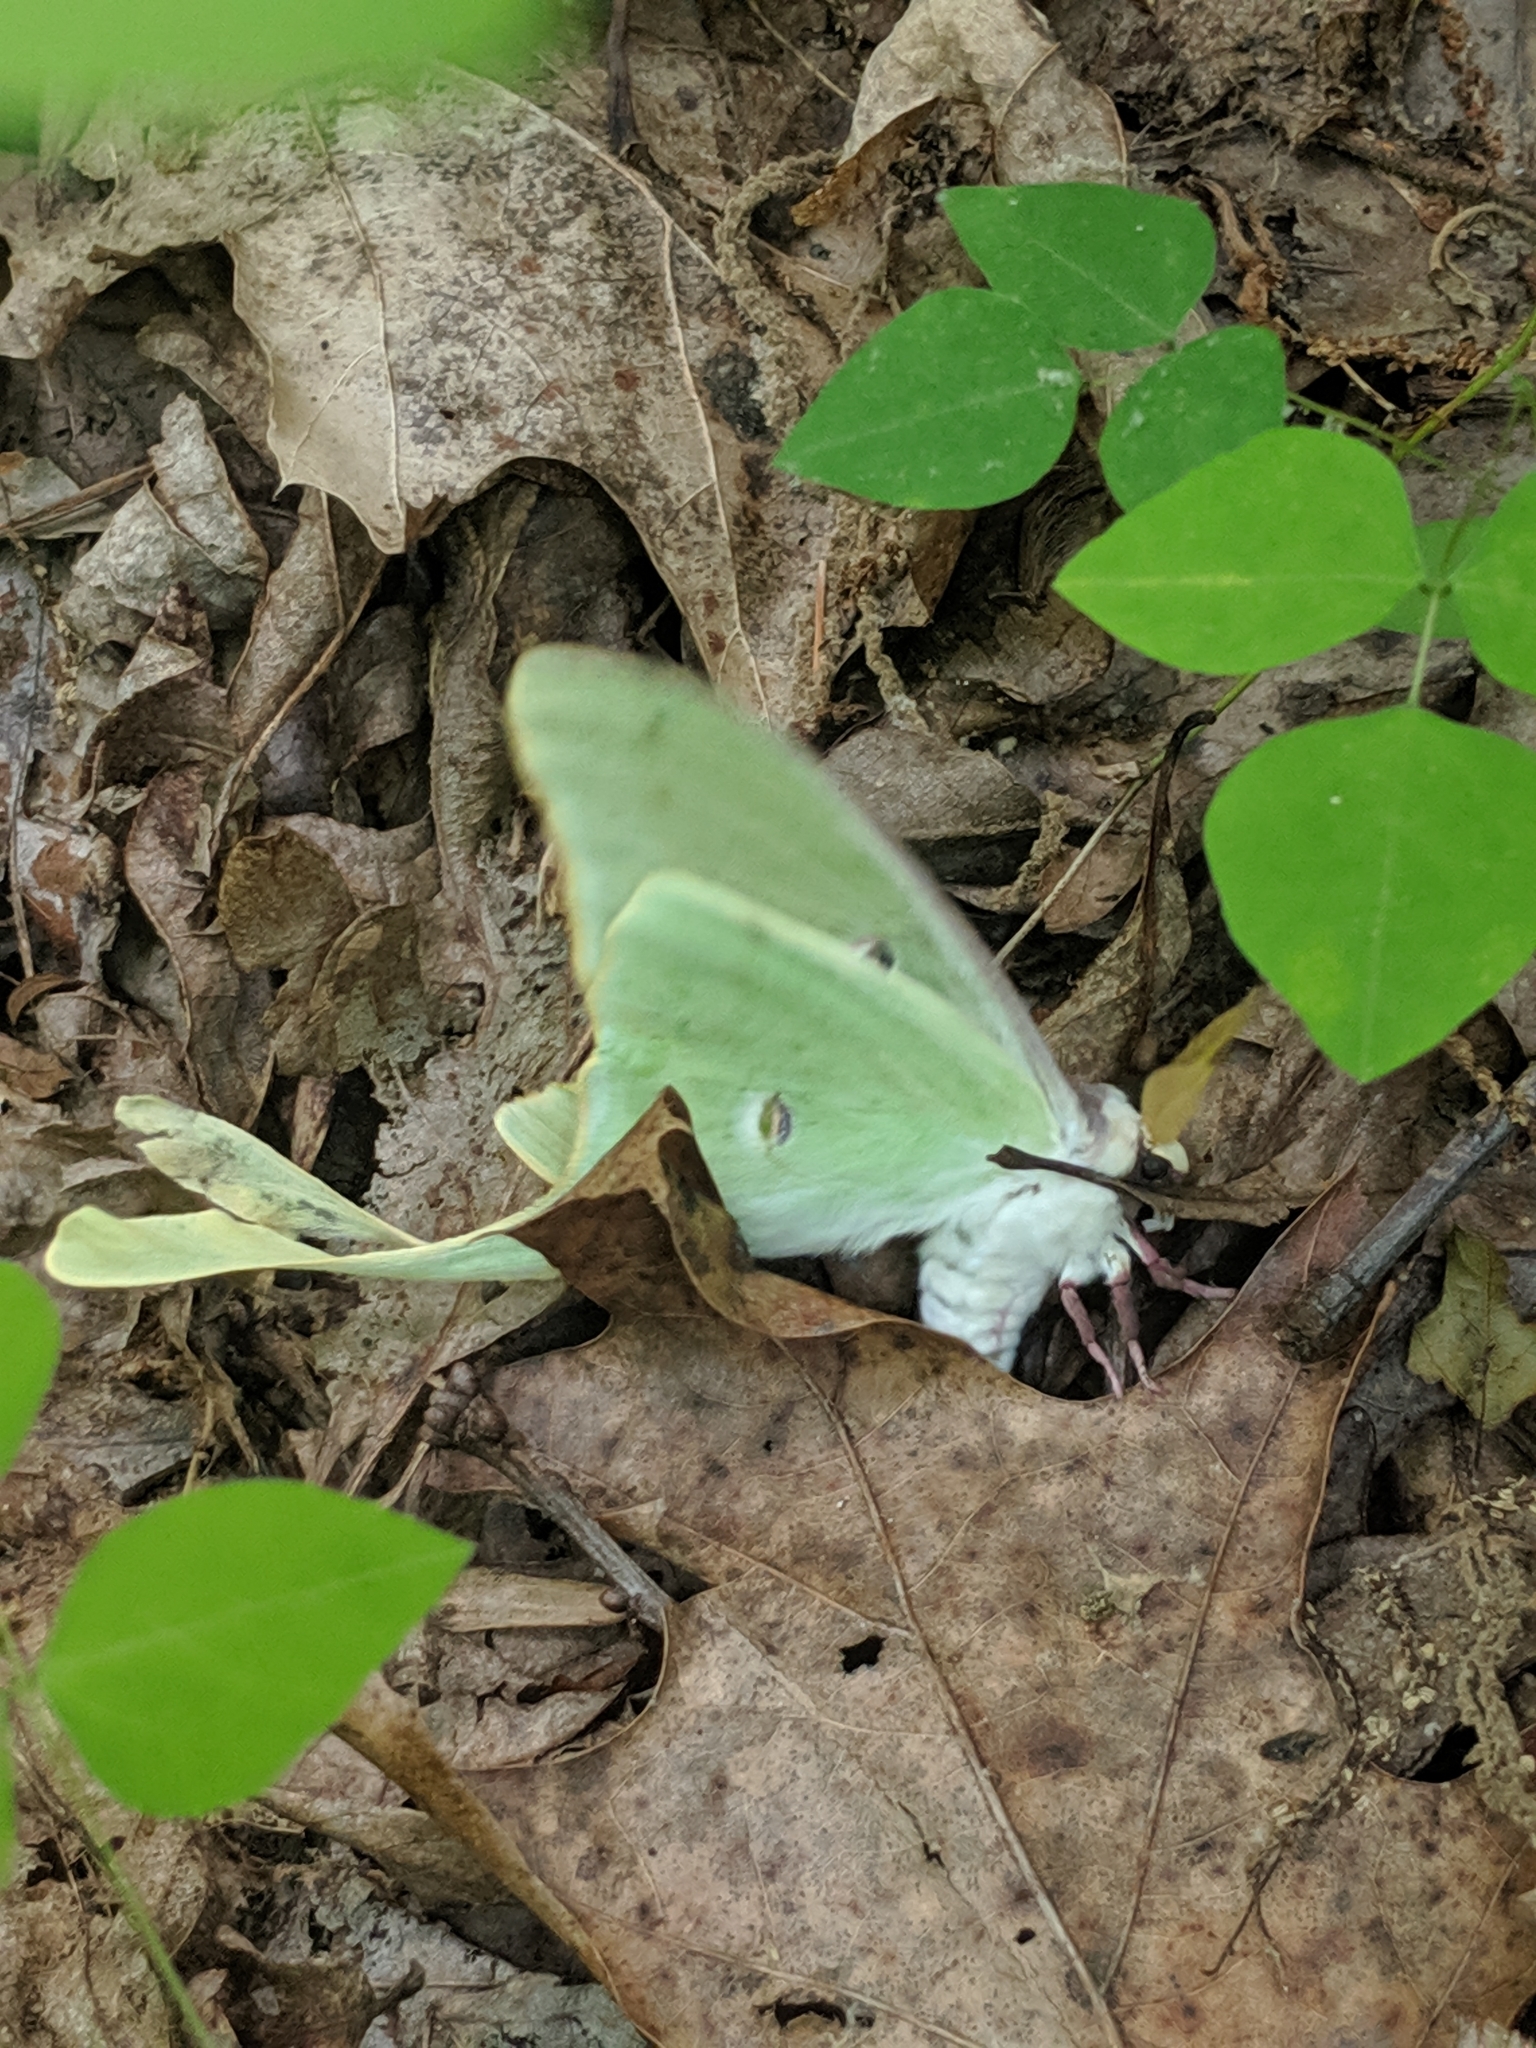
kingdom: Animalia
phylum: Arthropoda
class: Insecta
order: Lepidoptera
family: Saturniidae
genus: Actias
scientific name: Actias luna
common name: Luna moth
